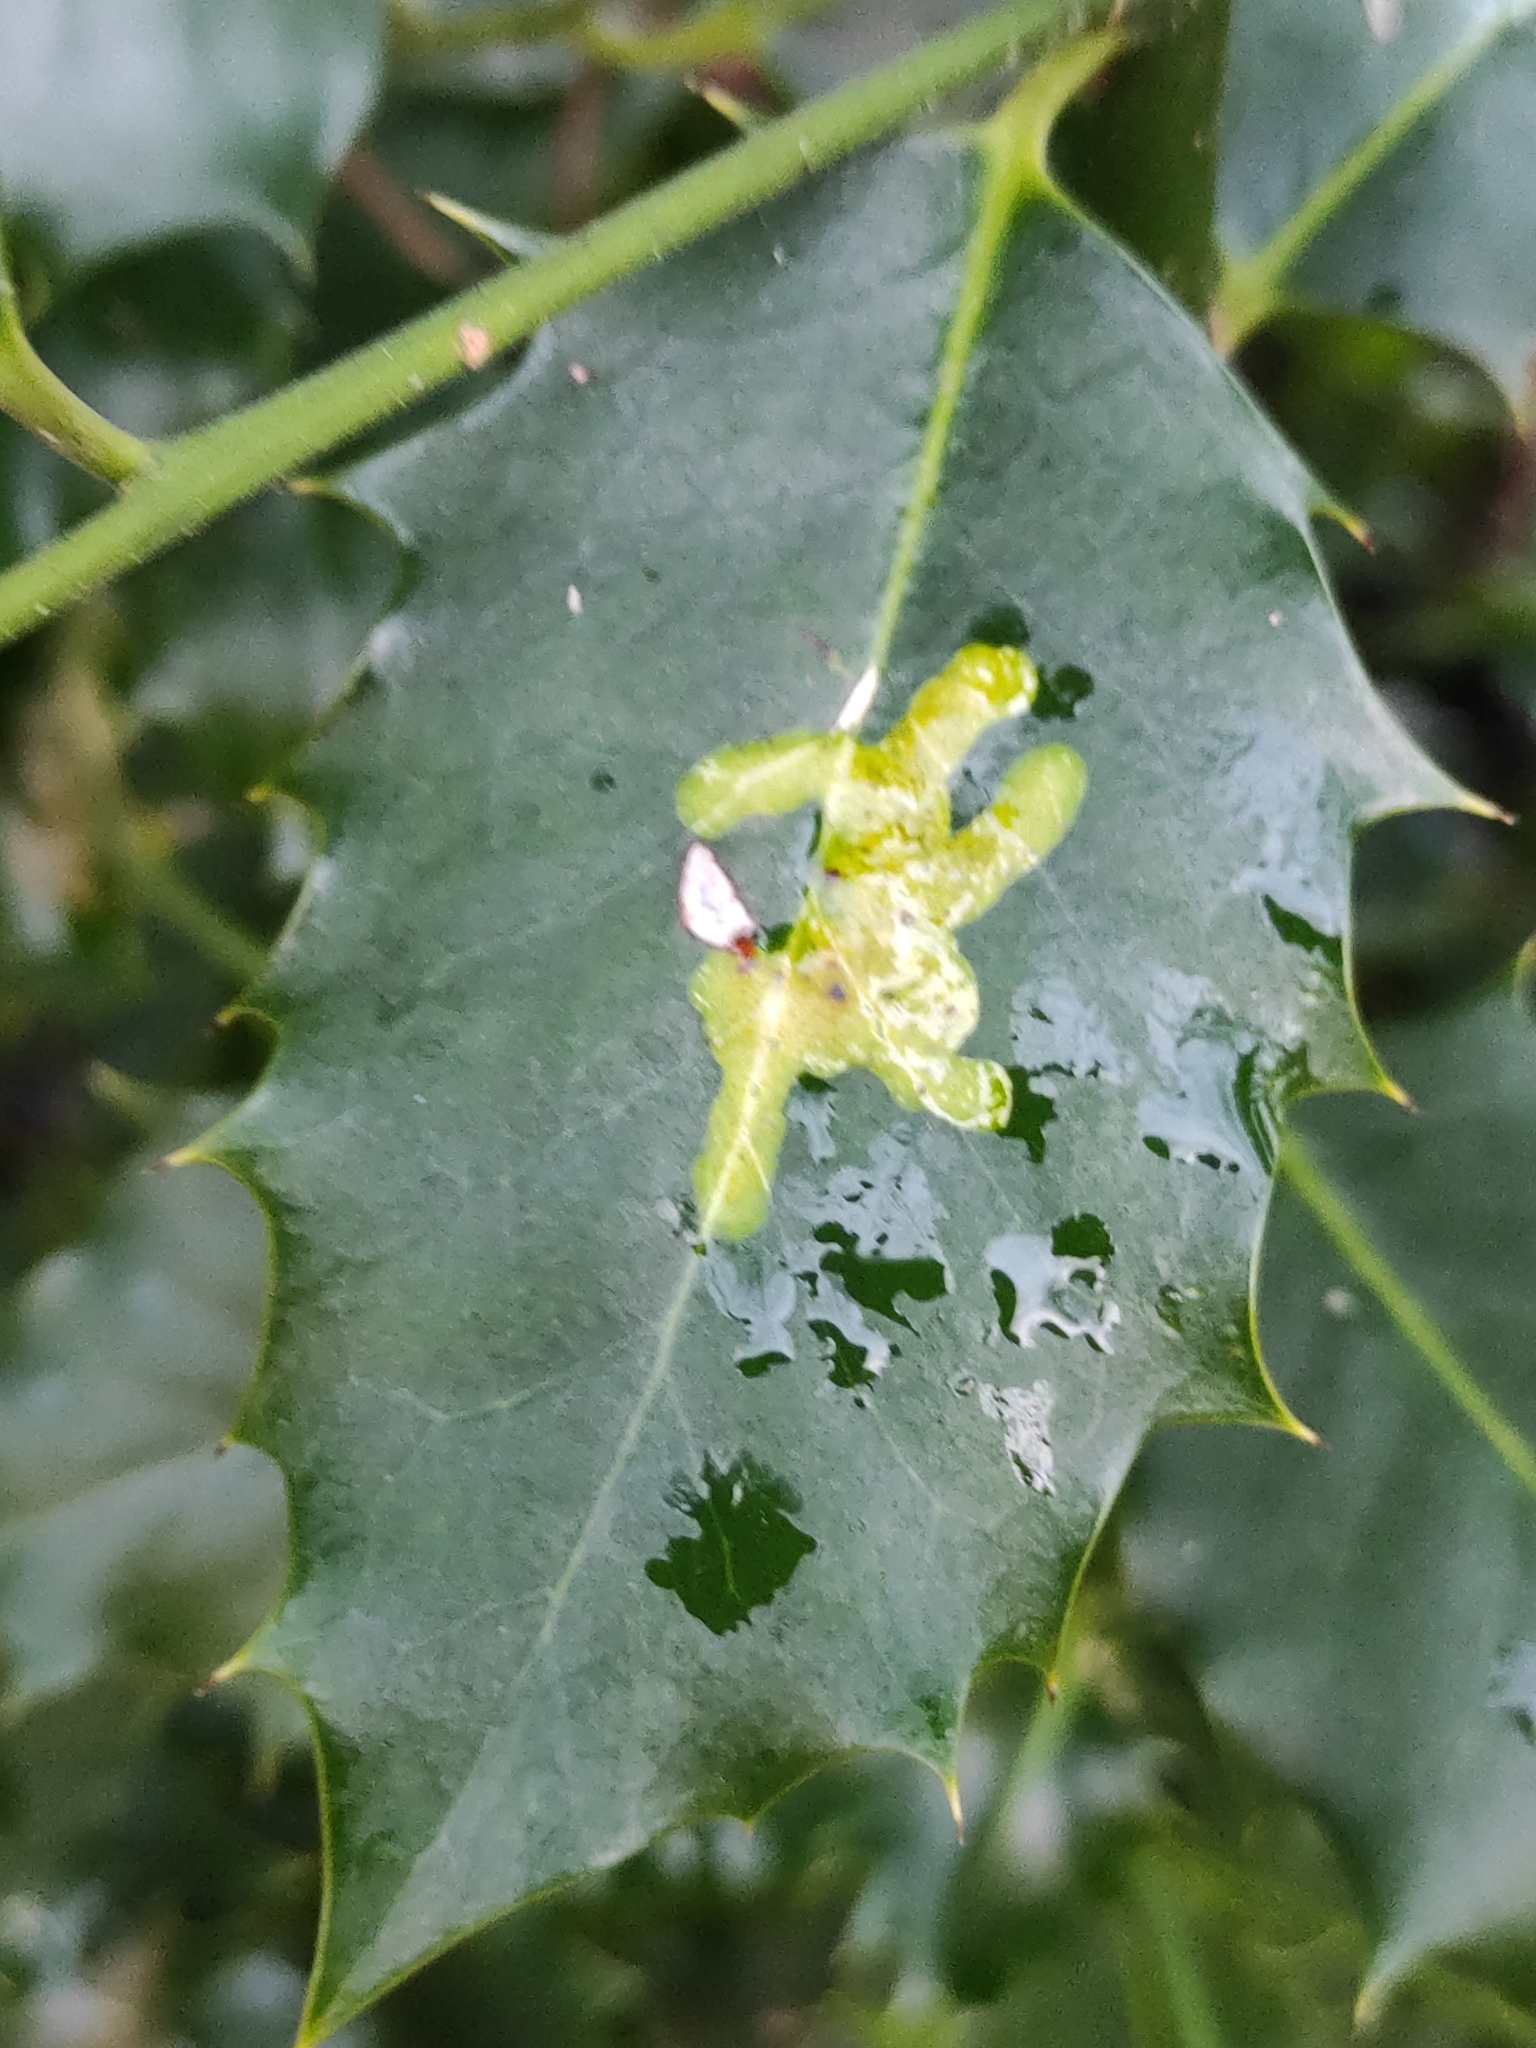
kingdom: Animalia
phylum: Arthropoda
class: Insecta
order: Diptera
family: Agromyzidae
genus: Phytomyza
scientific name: Phytomyza ilicis
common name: Holly leafminer
